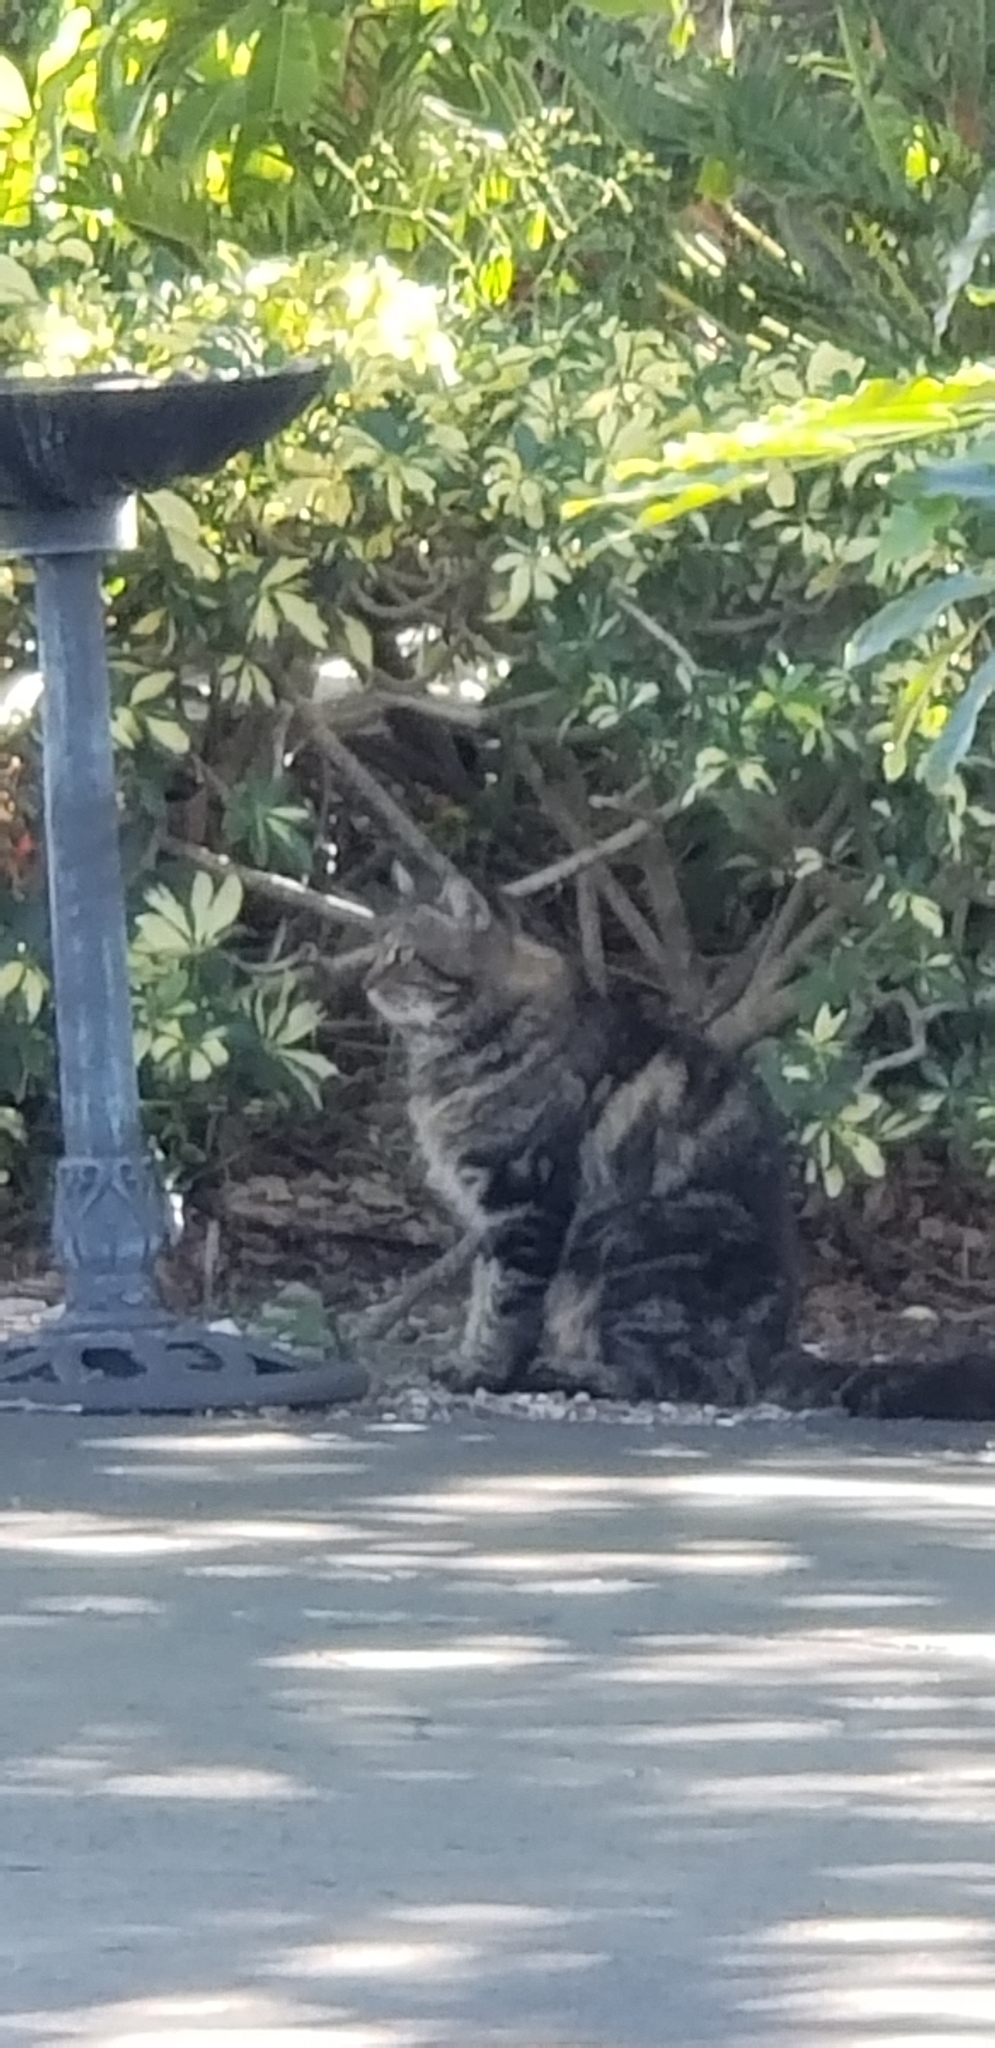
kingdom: Animalia
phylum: Chordata
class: Mammalia
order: Carnivora
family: Felidae
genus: Felis
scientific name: Felis catus
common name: Domestic cat
